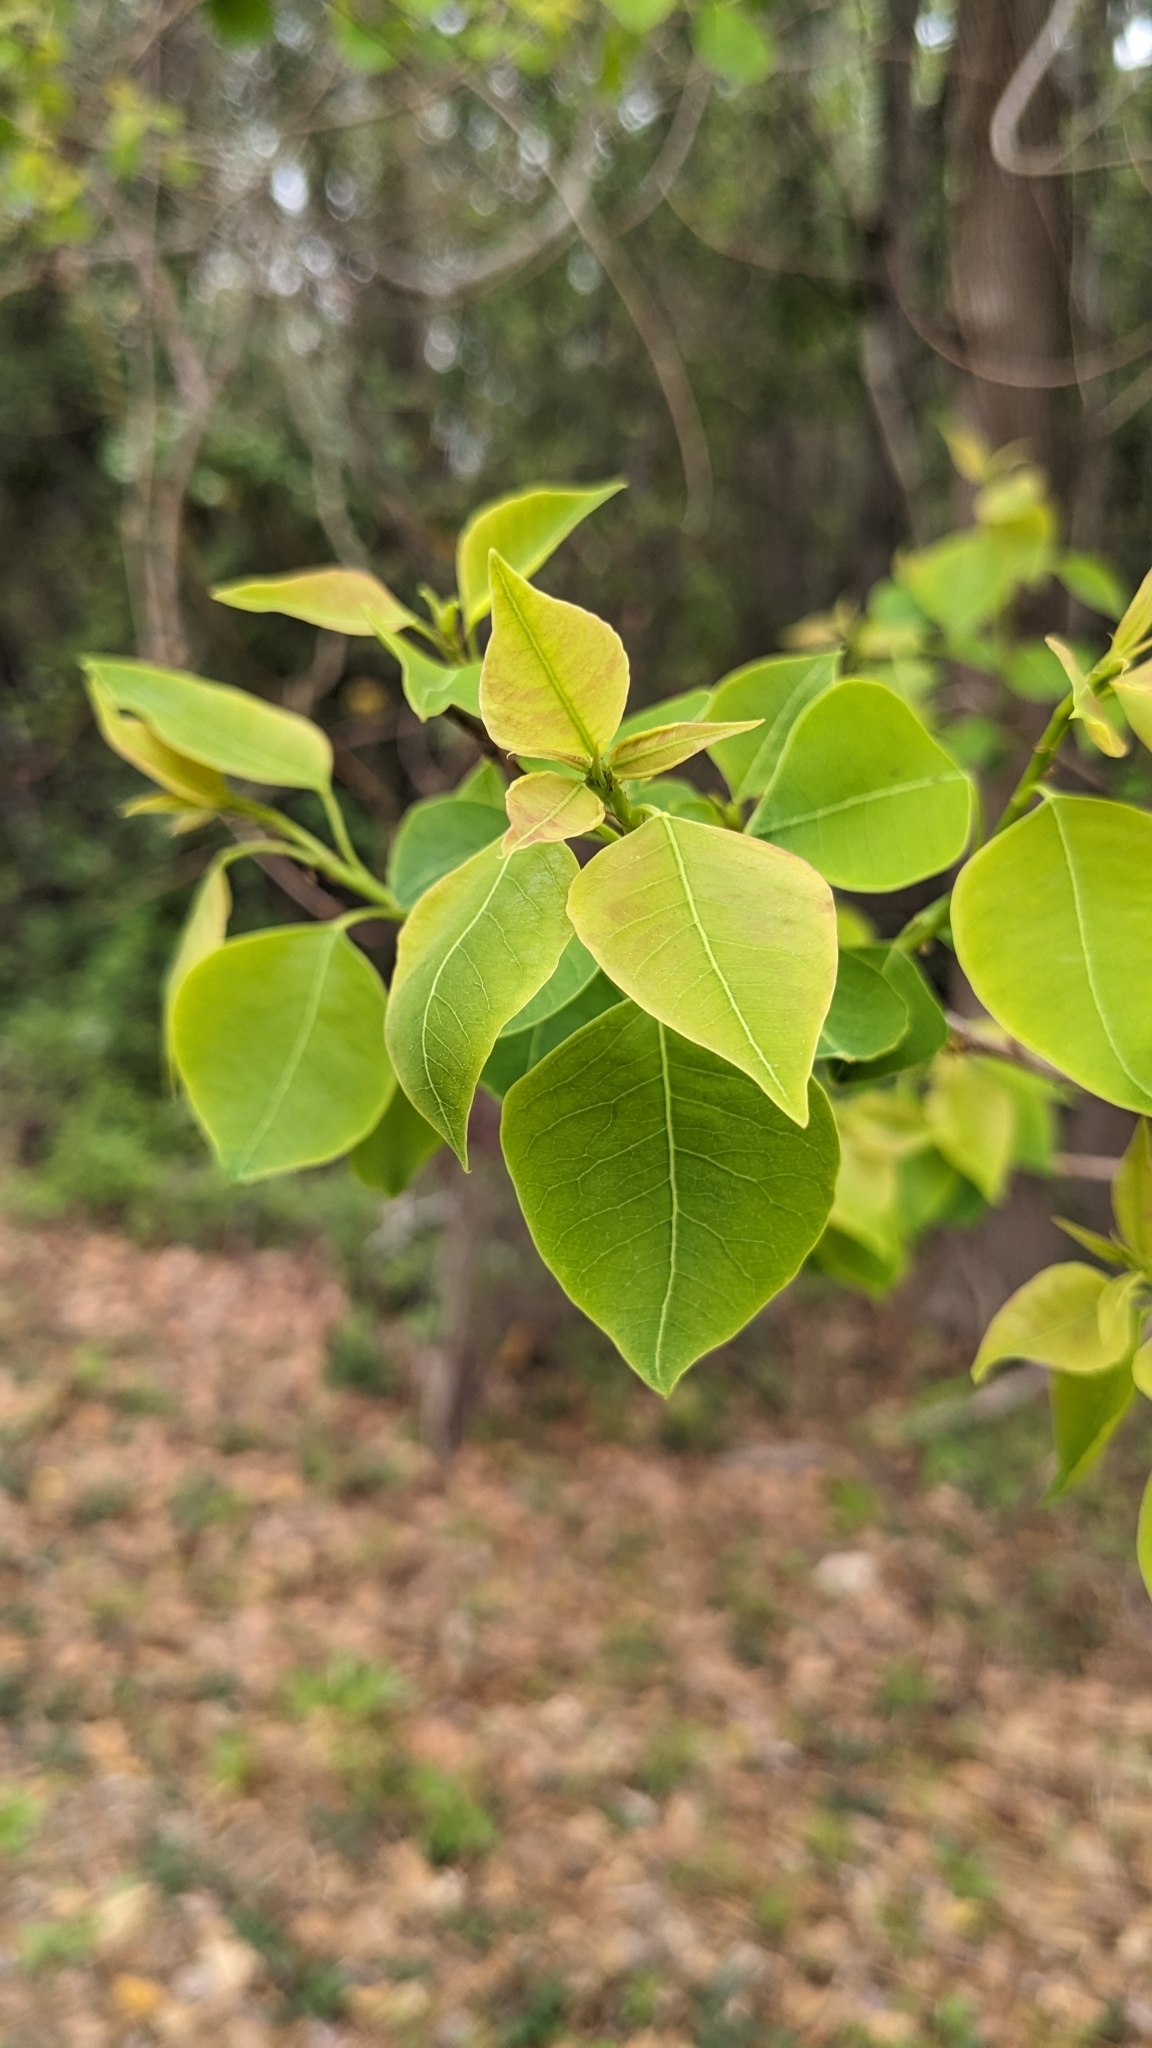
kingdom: Plantae
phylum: Tracheophyta
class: Magnoliopsida
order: Malpighiales
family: Euphorbiaceae
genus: Triadica
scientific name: Triadica sebifera
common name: Chinese tallow
